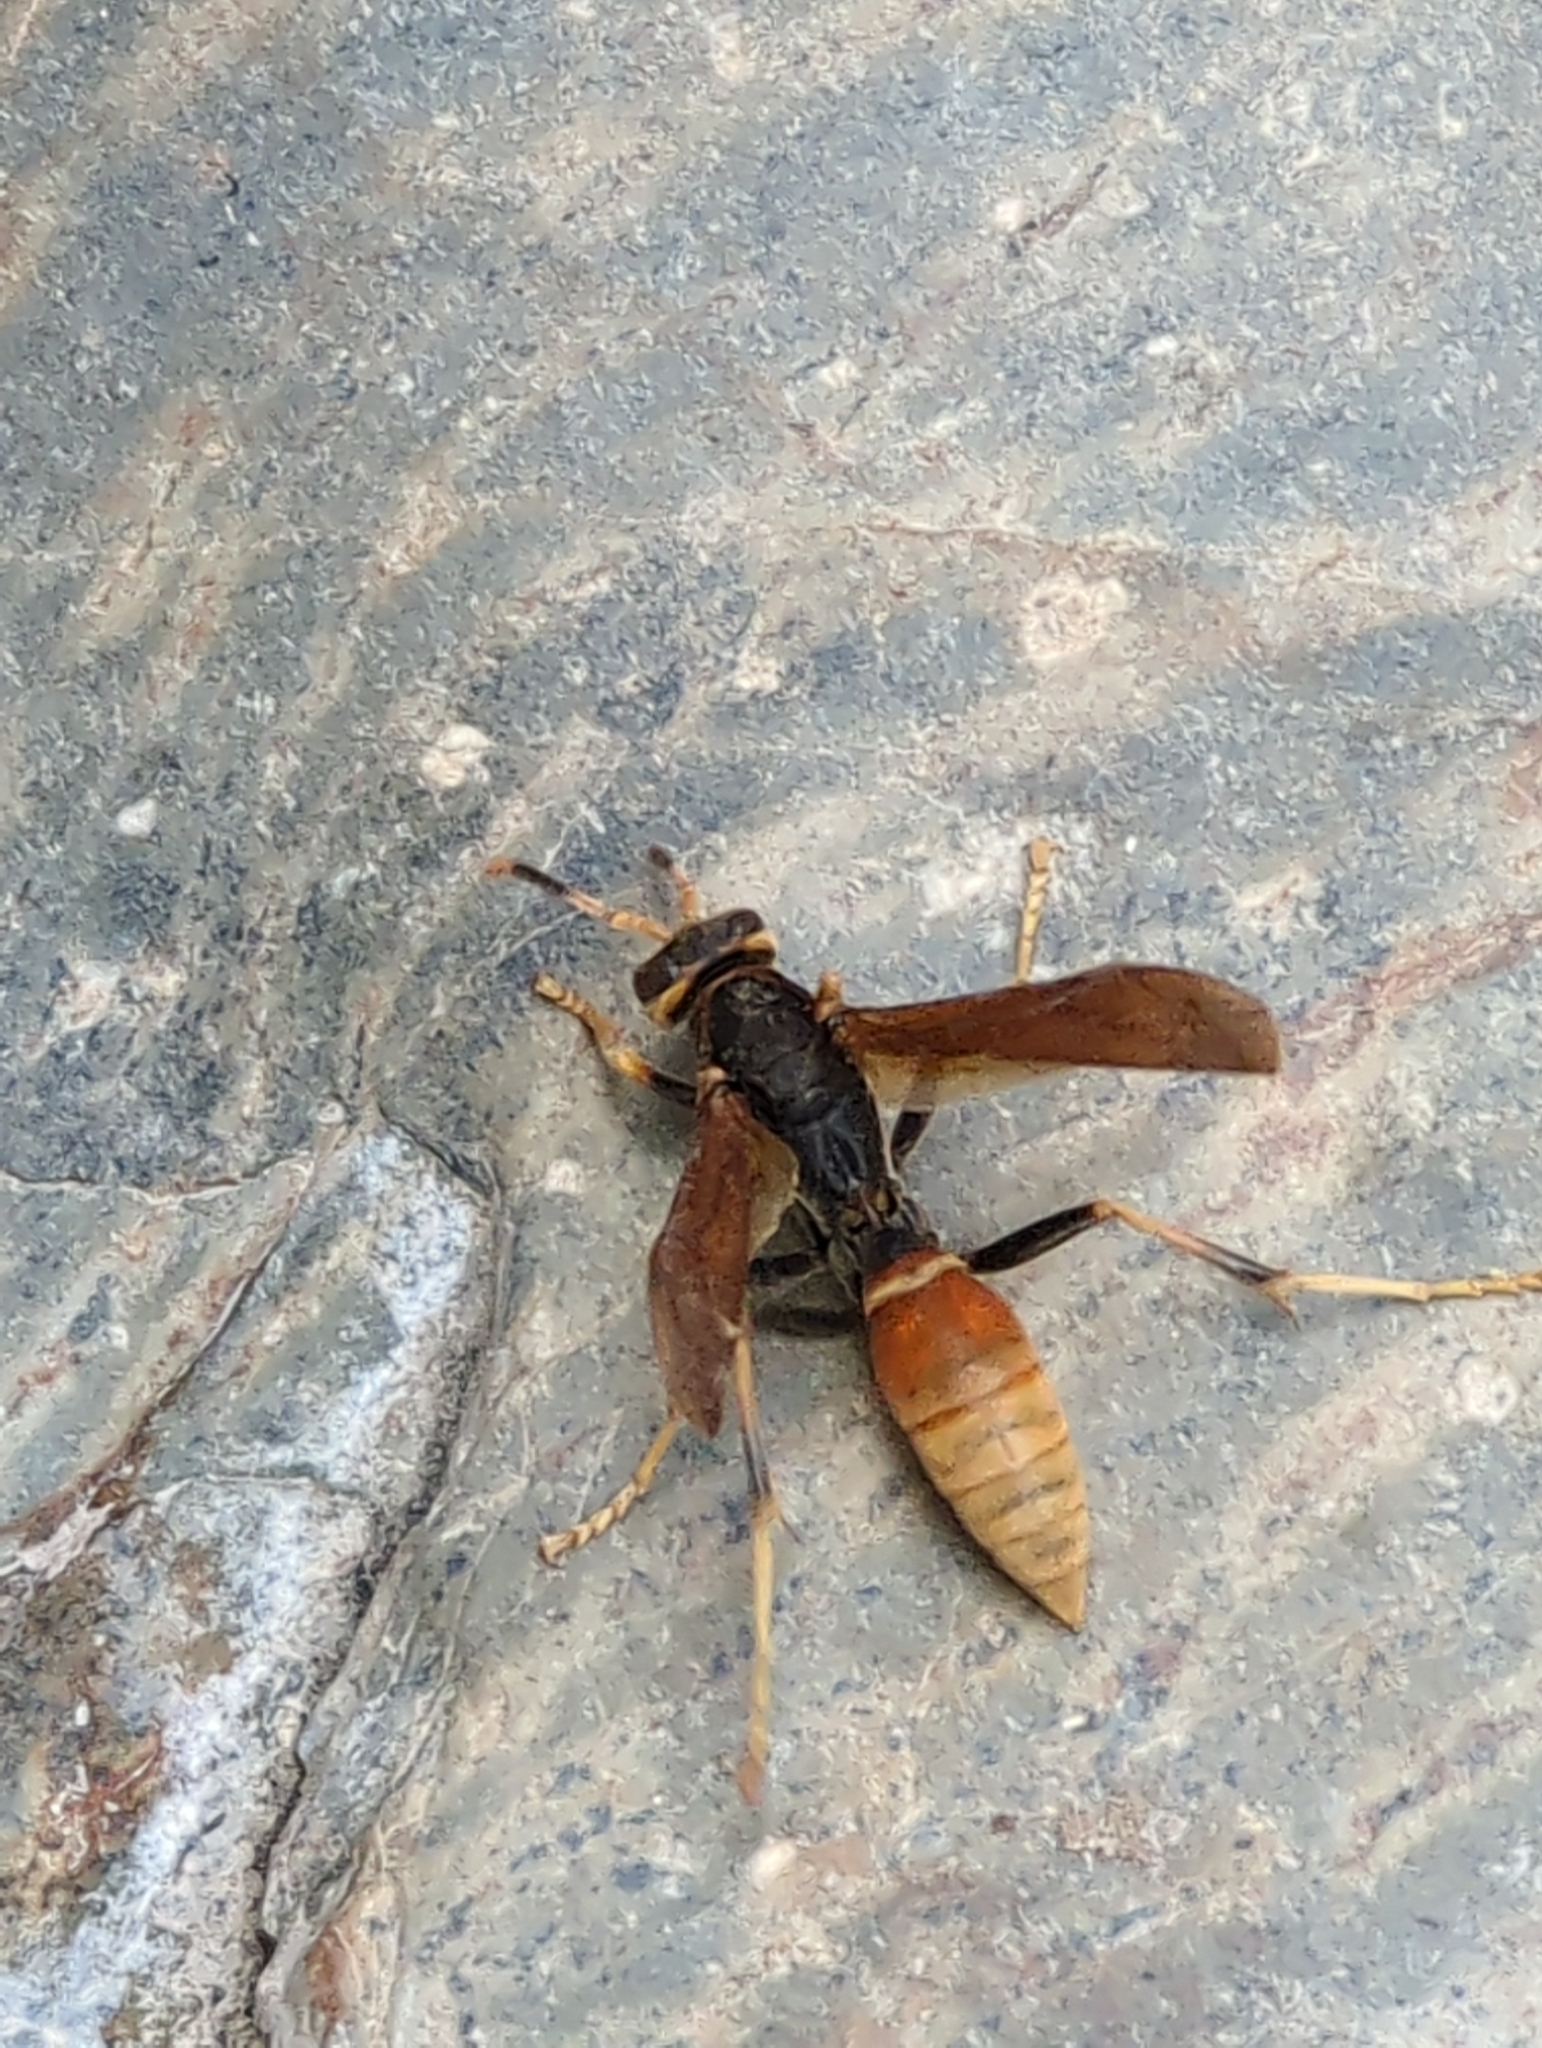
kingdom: Animalia
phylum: Arthropoda
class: Insecta
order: Hymenoptera
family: Eumenidae
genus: Polistes
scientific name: Polistes comanchus
